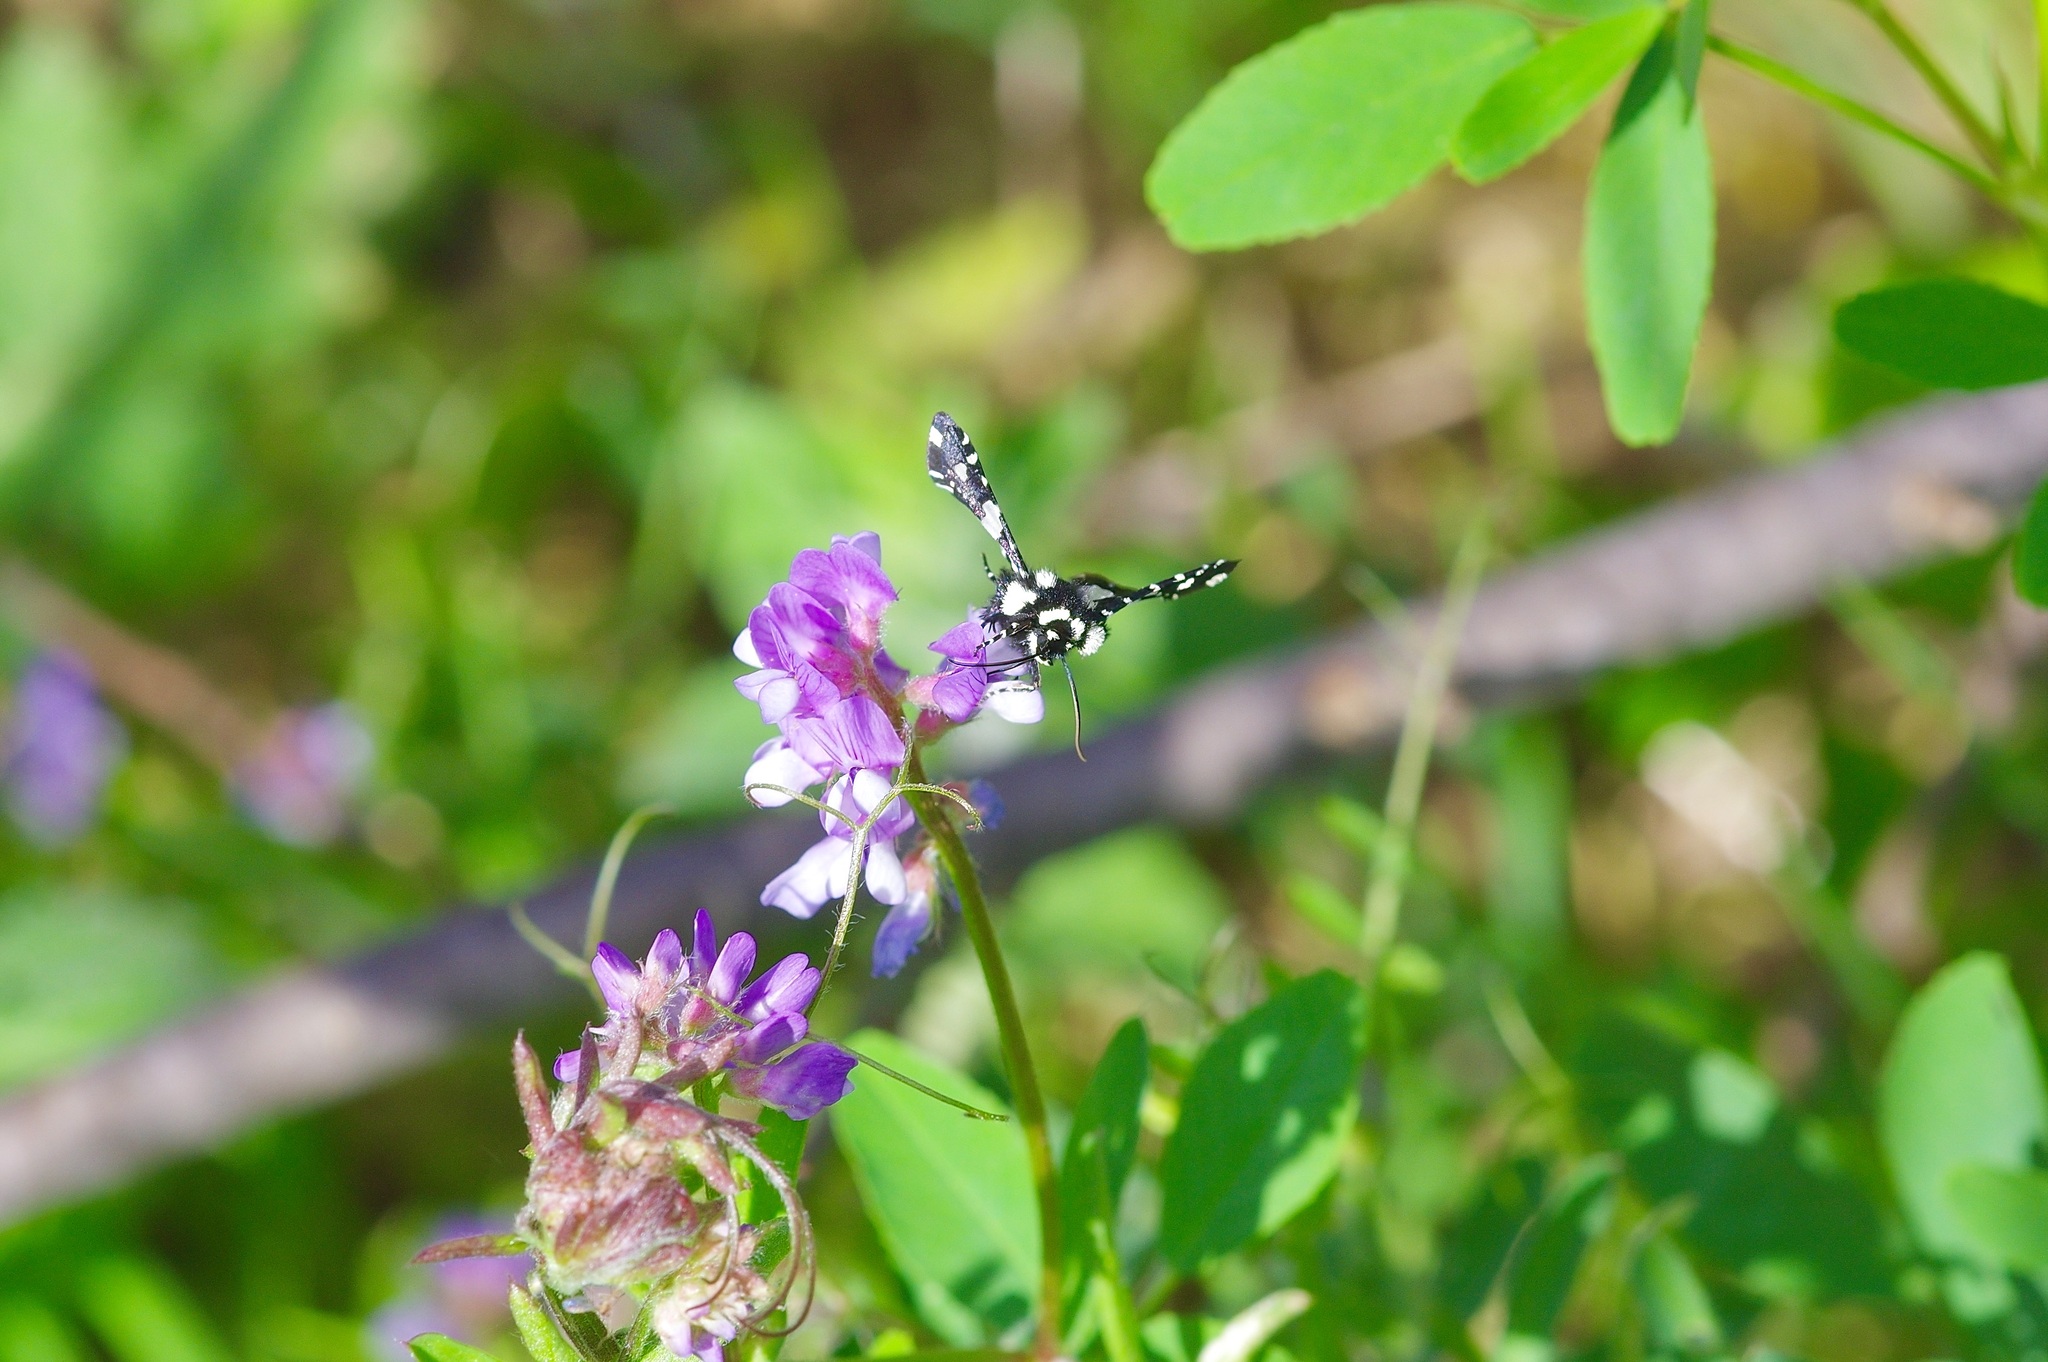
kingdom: Animalia
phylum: Arthropoda
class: Insecta
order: Lepidoptera
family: Thyrididae
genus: Pseudothyris
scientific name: Pseudothyris sepulchralis
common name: Mournful thyris moth
